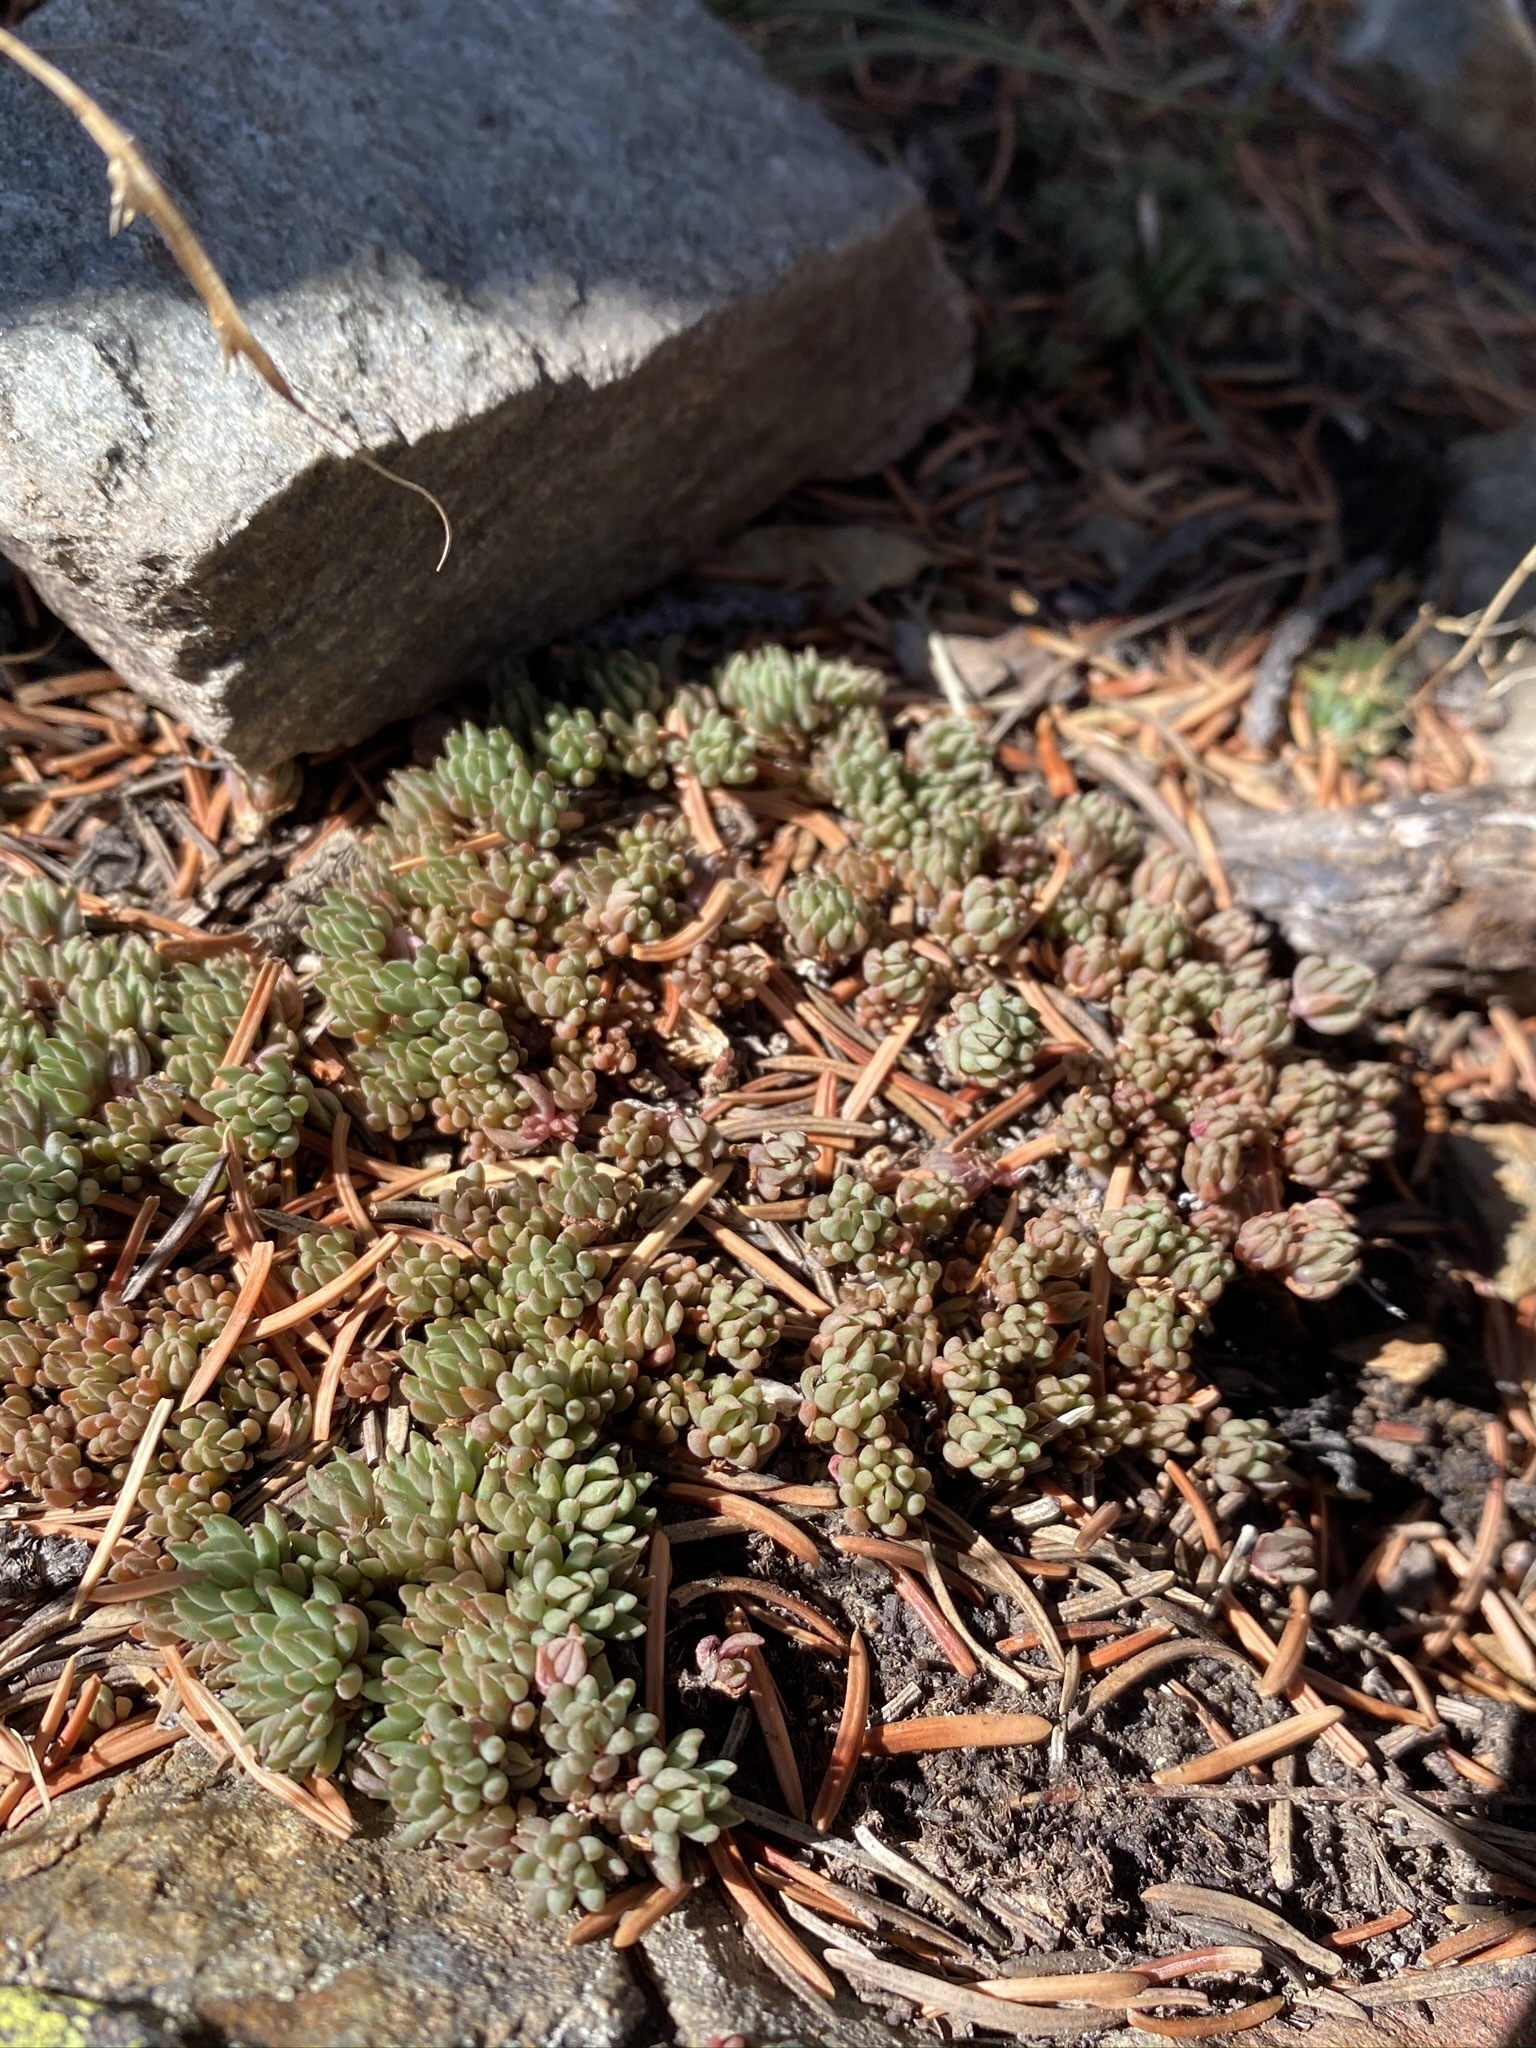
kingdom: Plantae
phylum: Tracheophyta
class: Magnoliopsida
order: Saxifragales
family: Crassulaceae
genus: Sedum
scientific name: Sedum lanceolatum
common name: Common stonecrop
